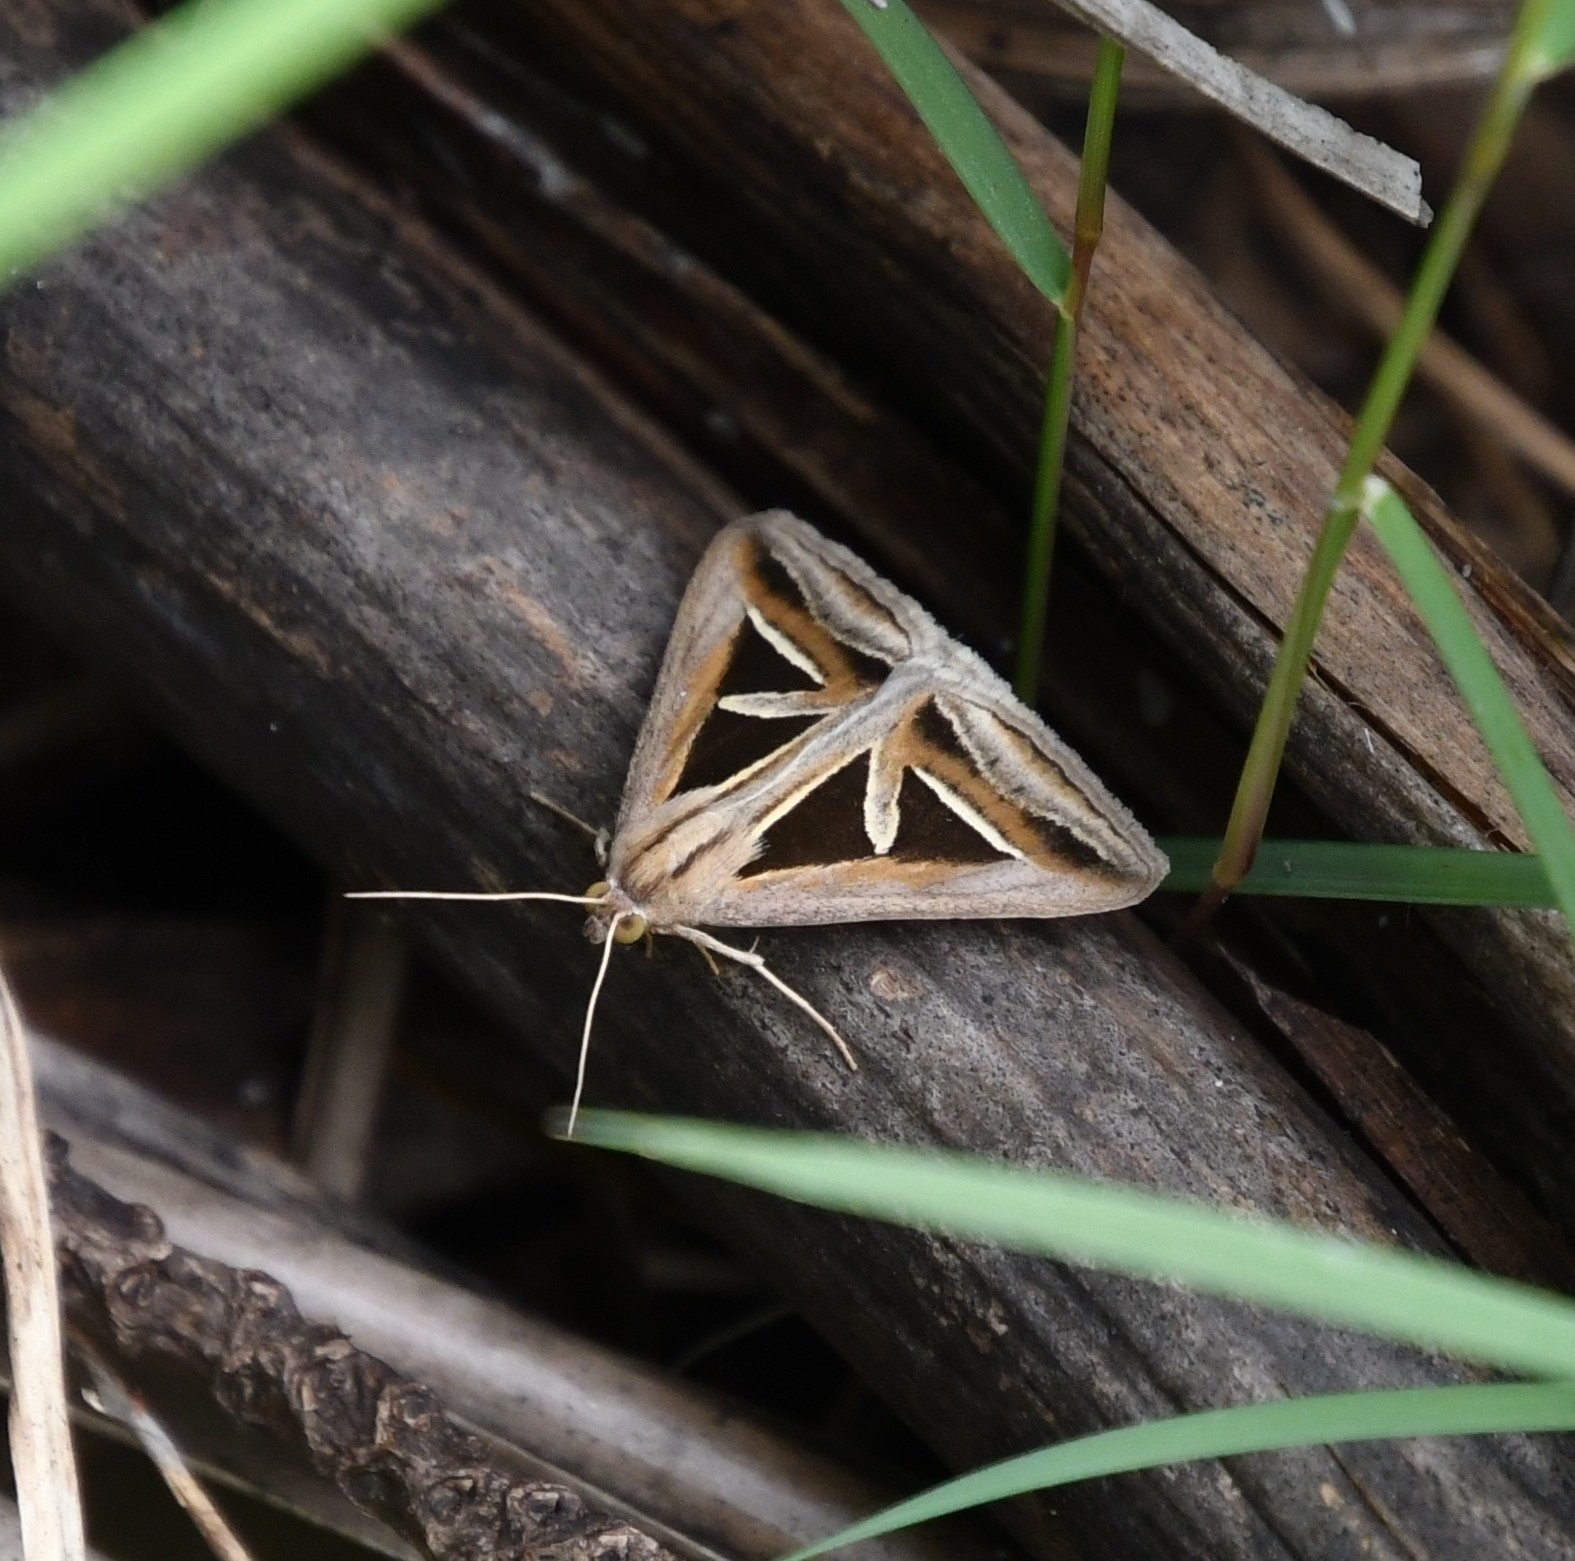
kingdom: Animalia
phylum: Arthropoda
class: Insecta
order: Lepidoptera
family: Erebidae
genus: Trigonodes
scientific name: Trigonodes hyppasia
